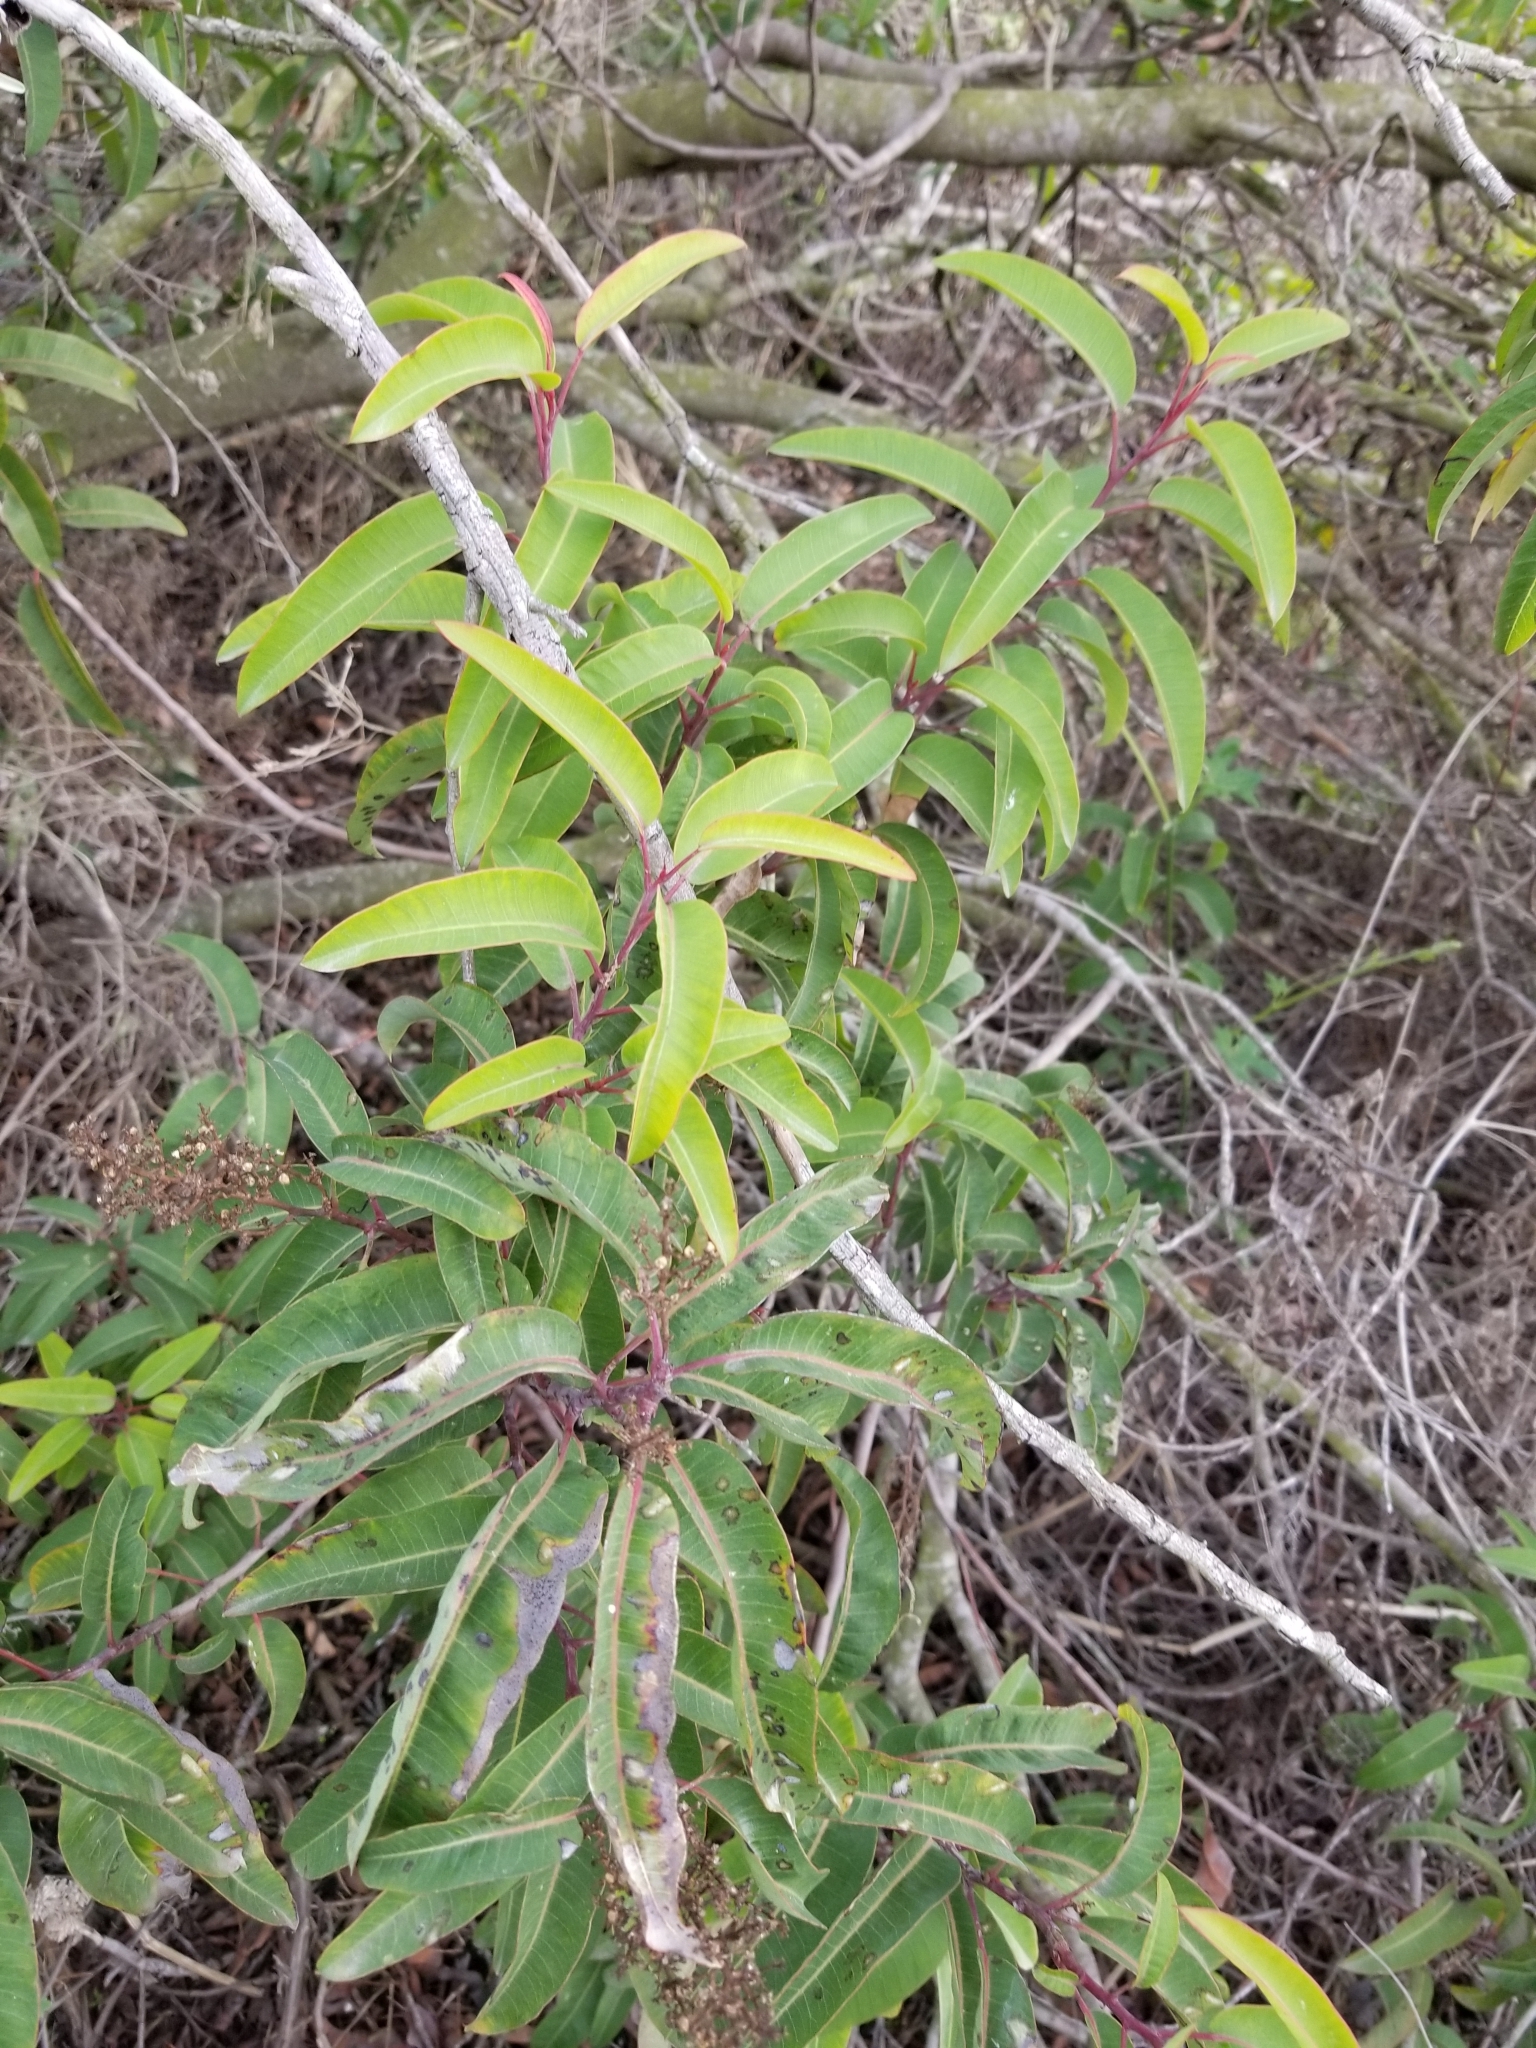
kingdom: Plantae
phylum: Tracheophyta
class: Magnoliopsida
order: Sapindales
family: Anacardiaceae
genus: Malosma
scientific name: Malosma laurina
